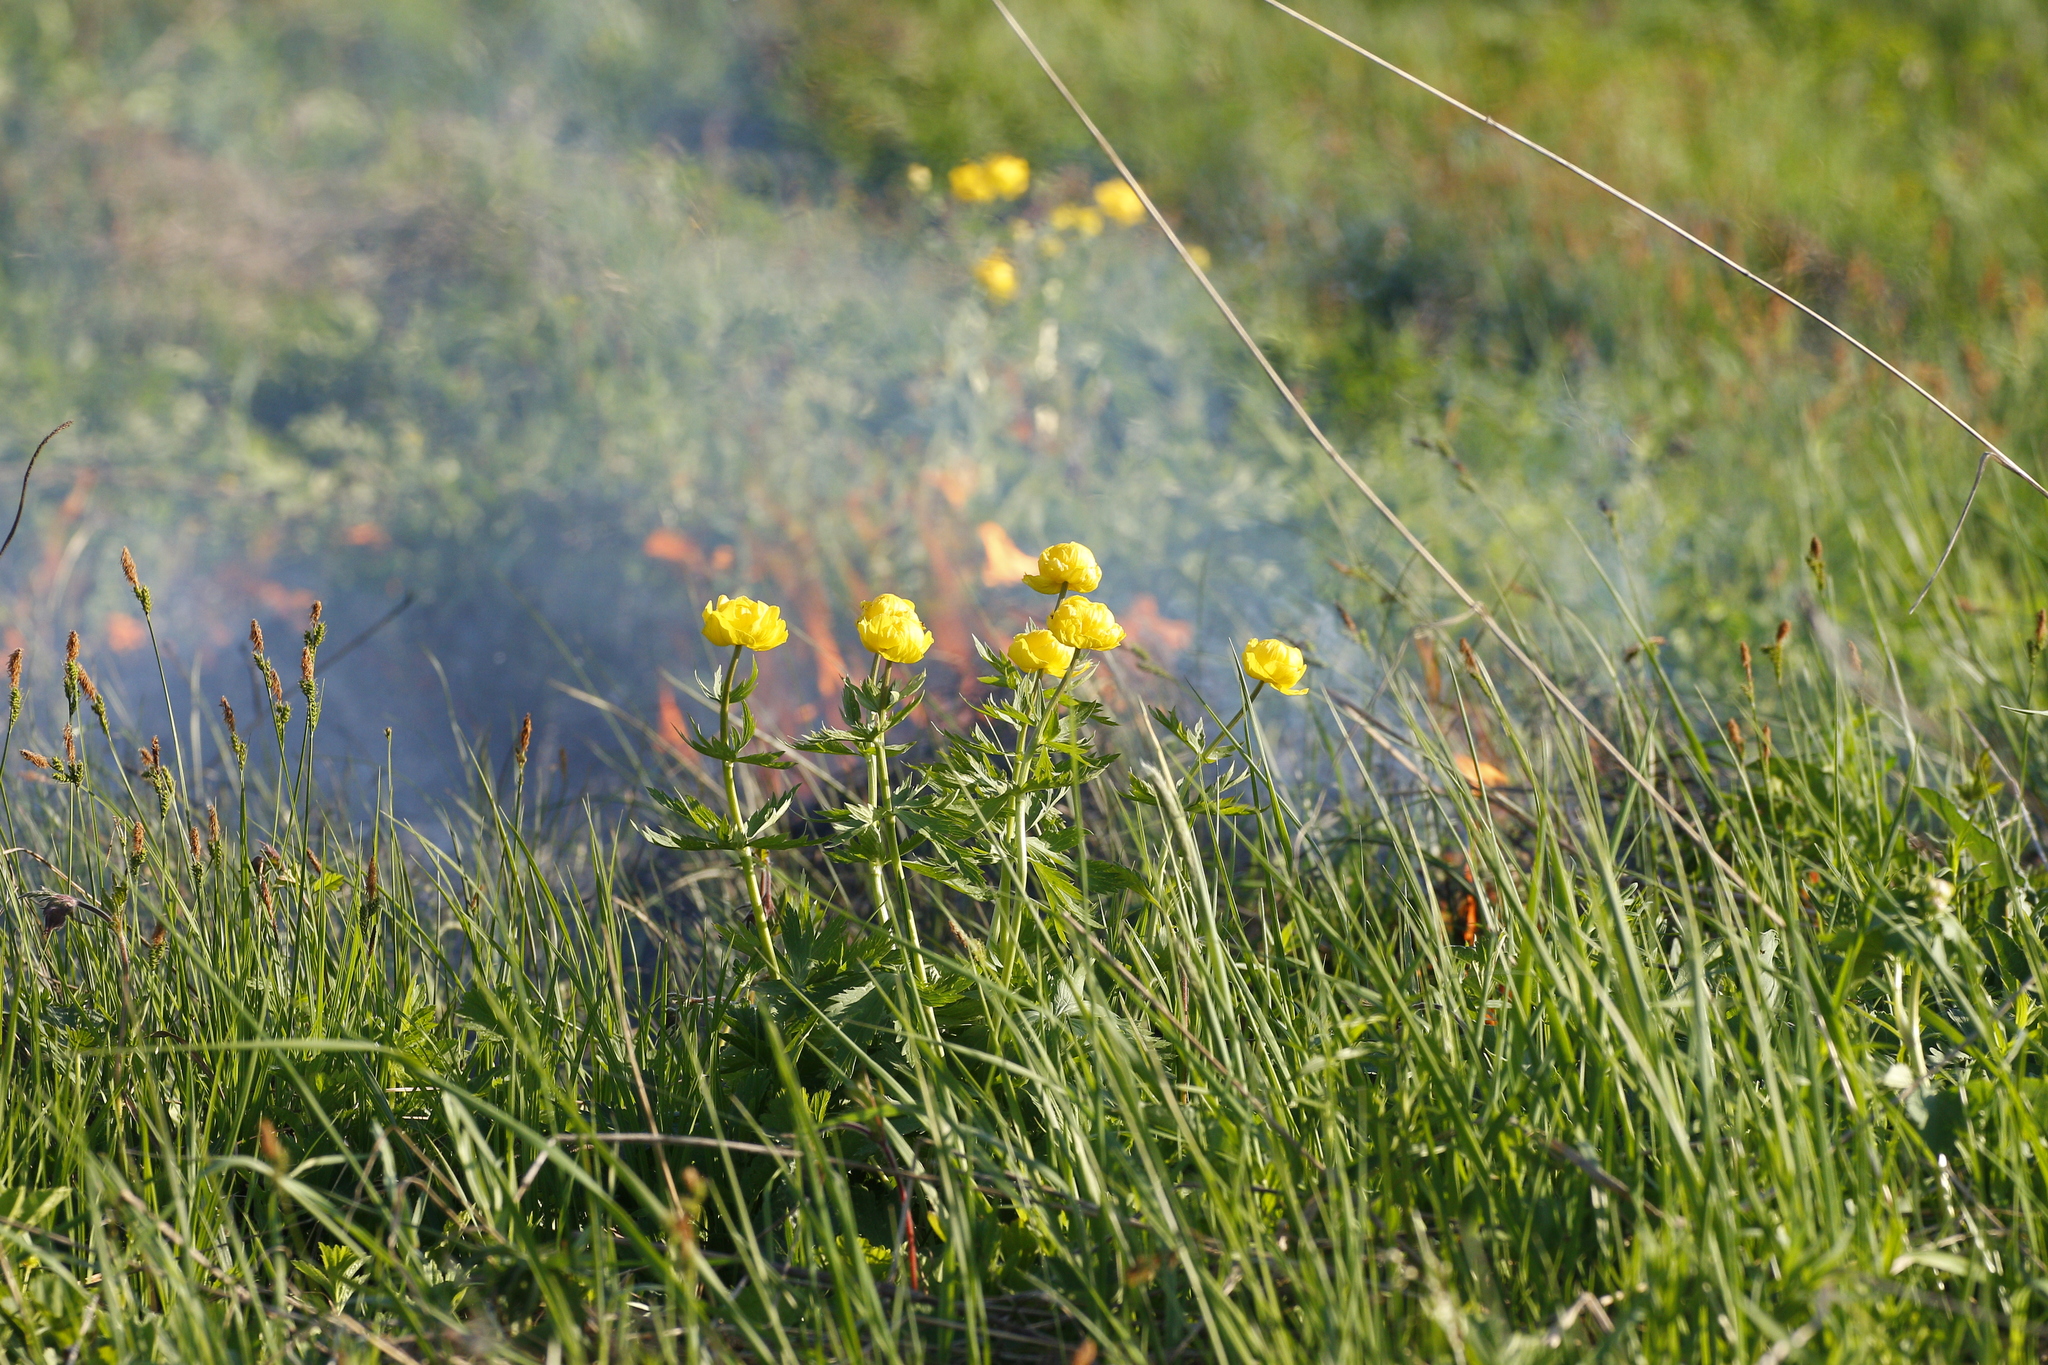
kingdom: Plantae
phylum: Tracheophyta
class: Magnoliopsida
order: Ranunculales
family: Ranunculaceae
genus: Trollius
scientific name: Trollius europaeus
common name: European globeflower
